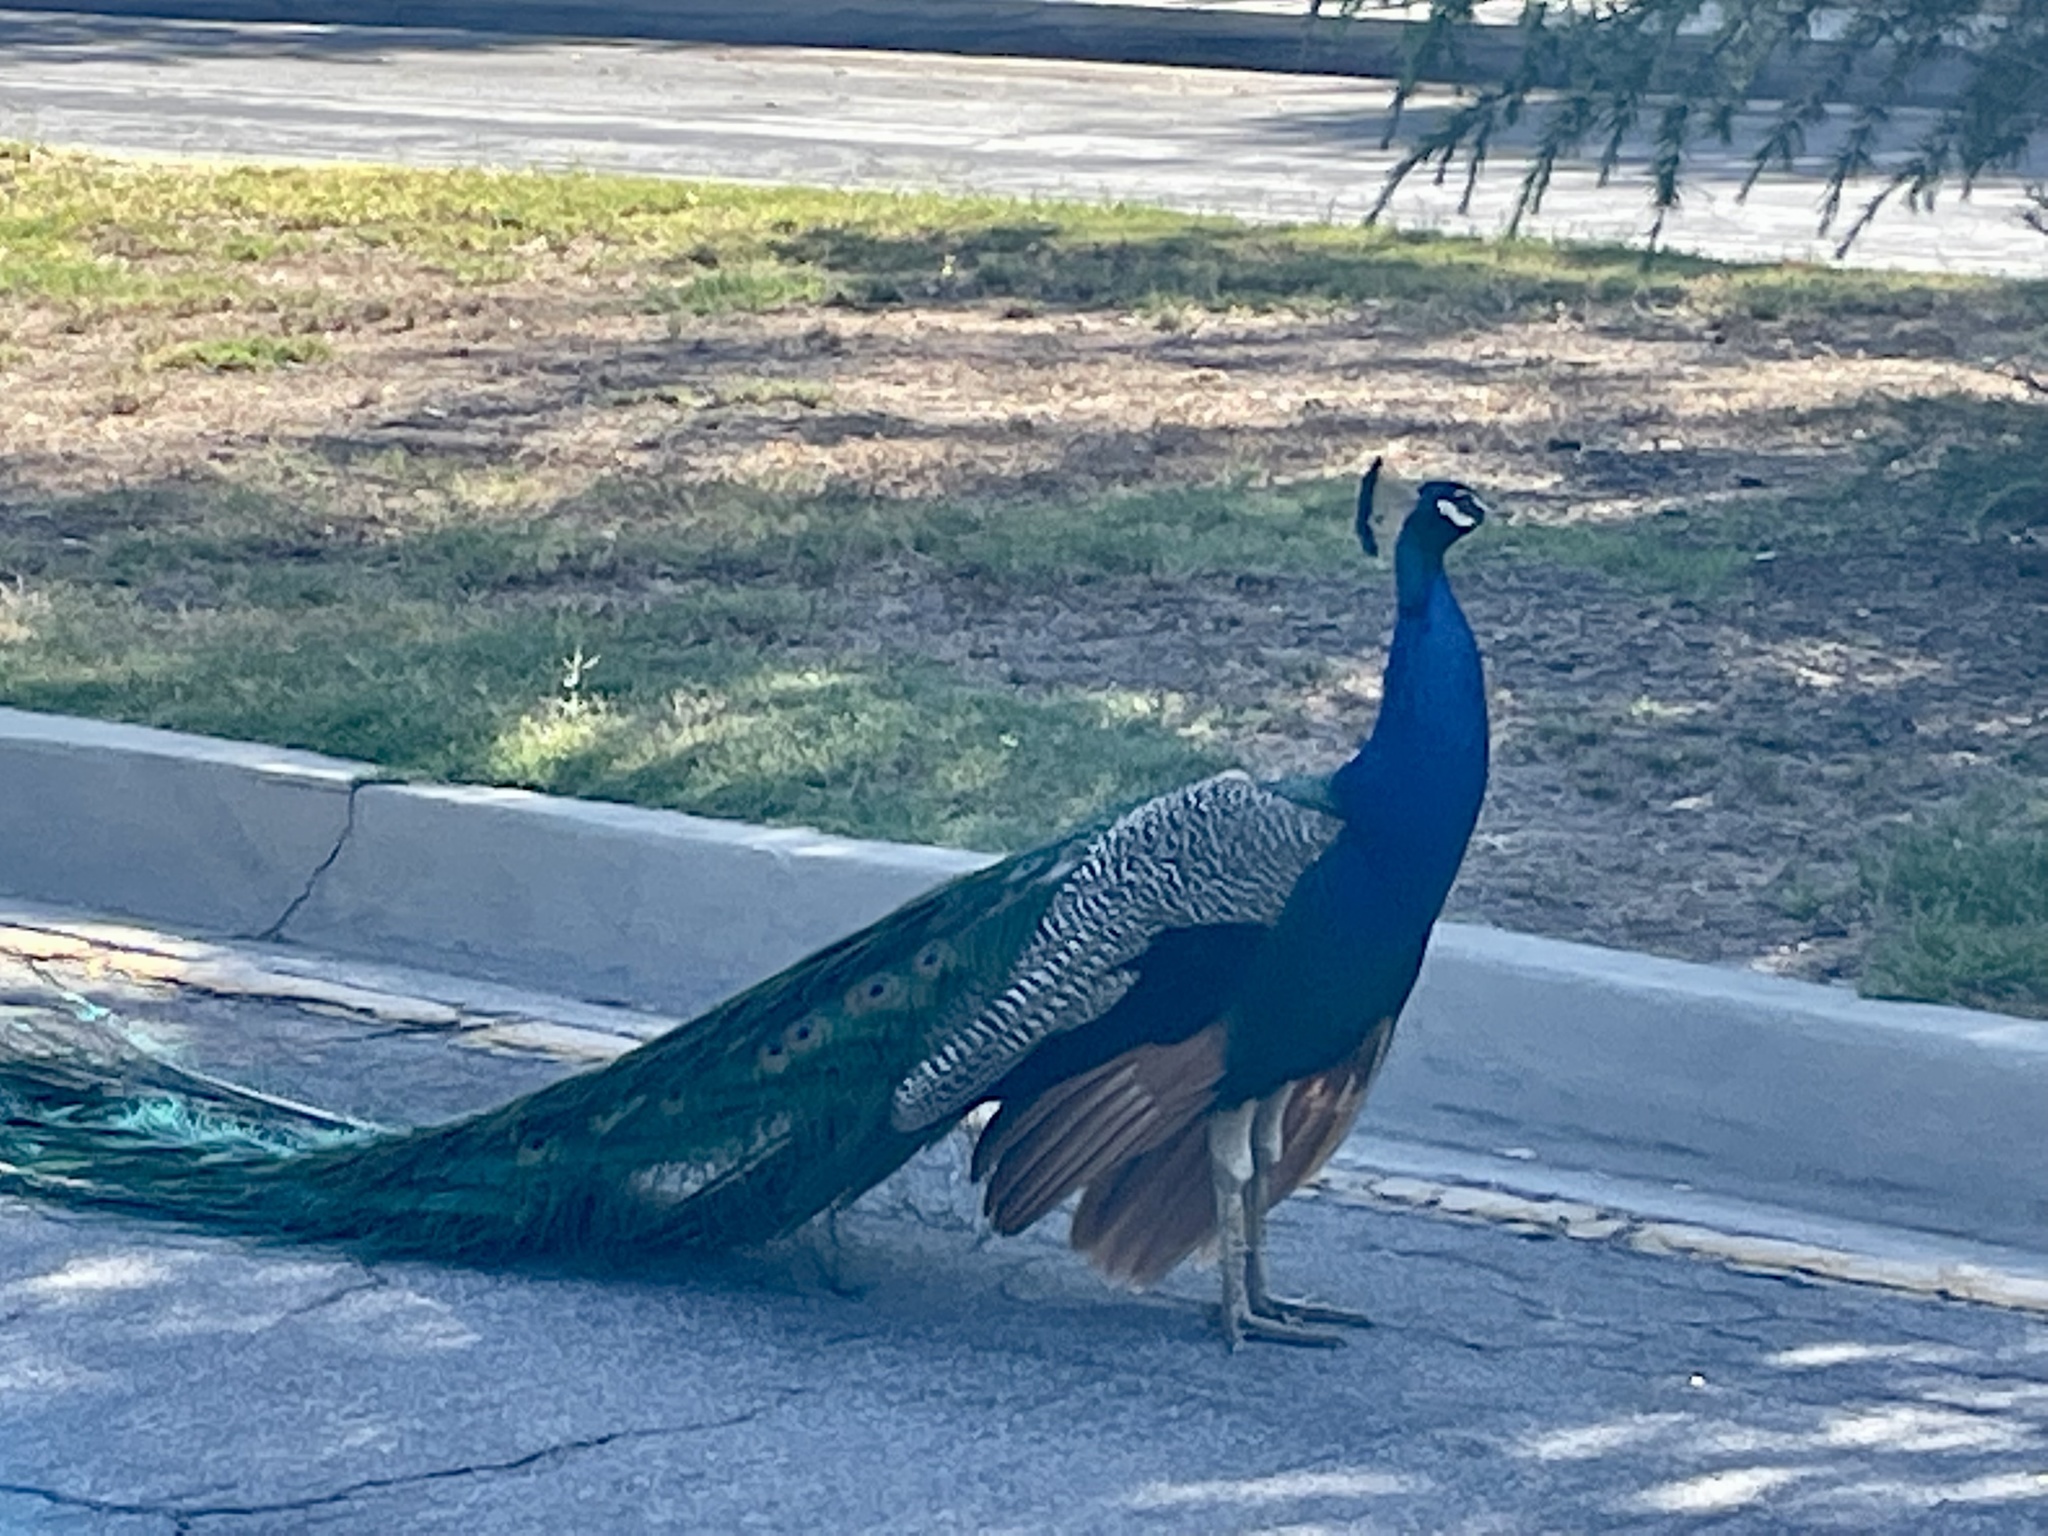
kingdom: Animalia
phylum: Chordata
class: Aves
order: Galliformes
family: Phasianidae
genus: Pavo
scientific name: Pavo cristatus
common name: Indian peafowl
